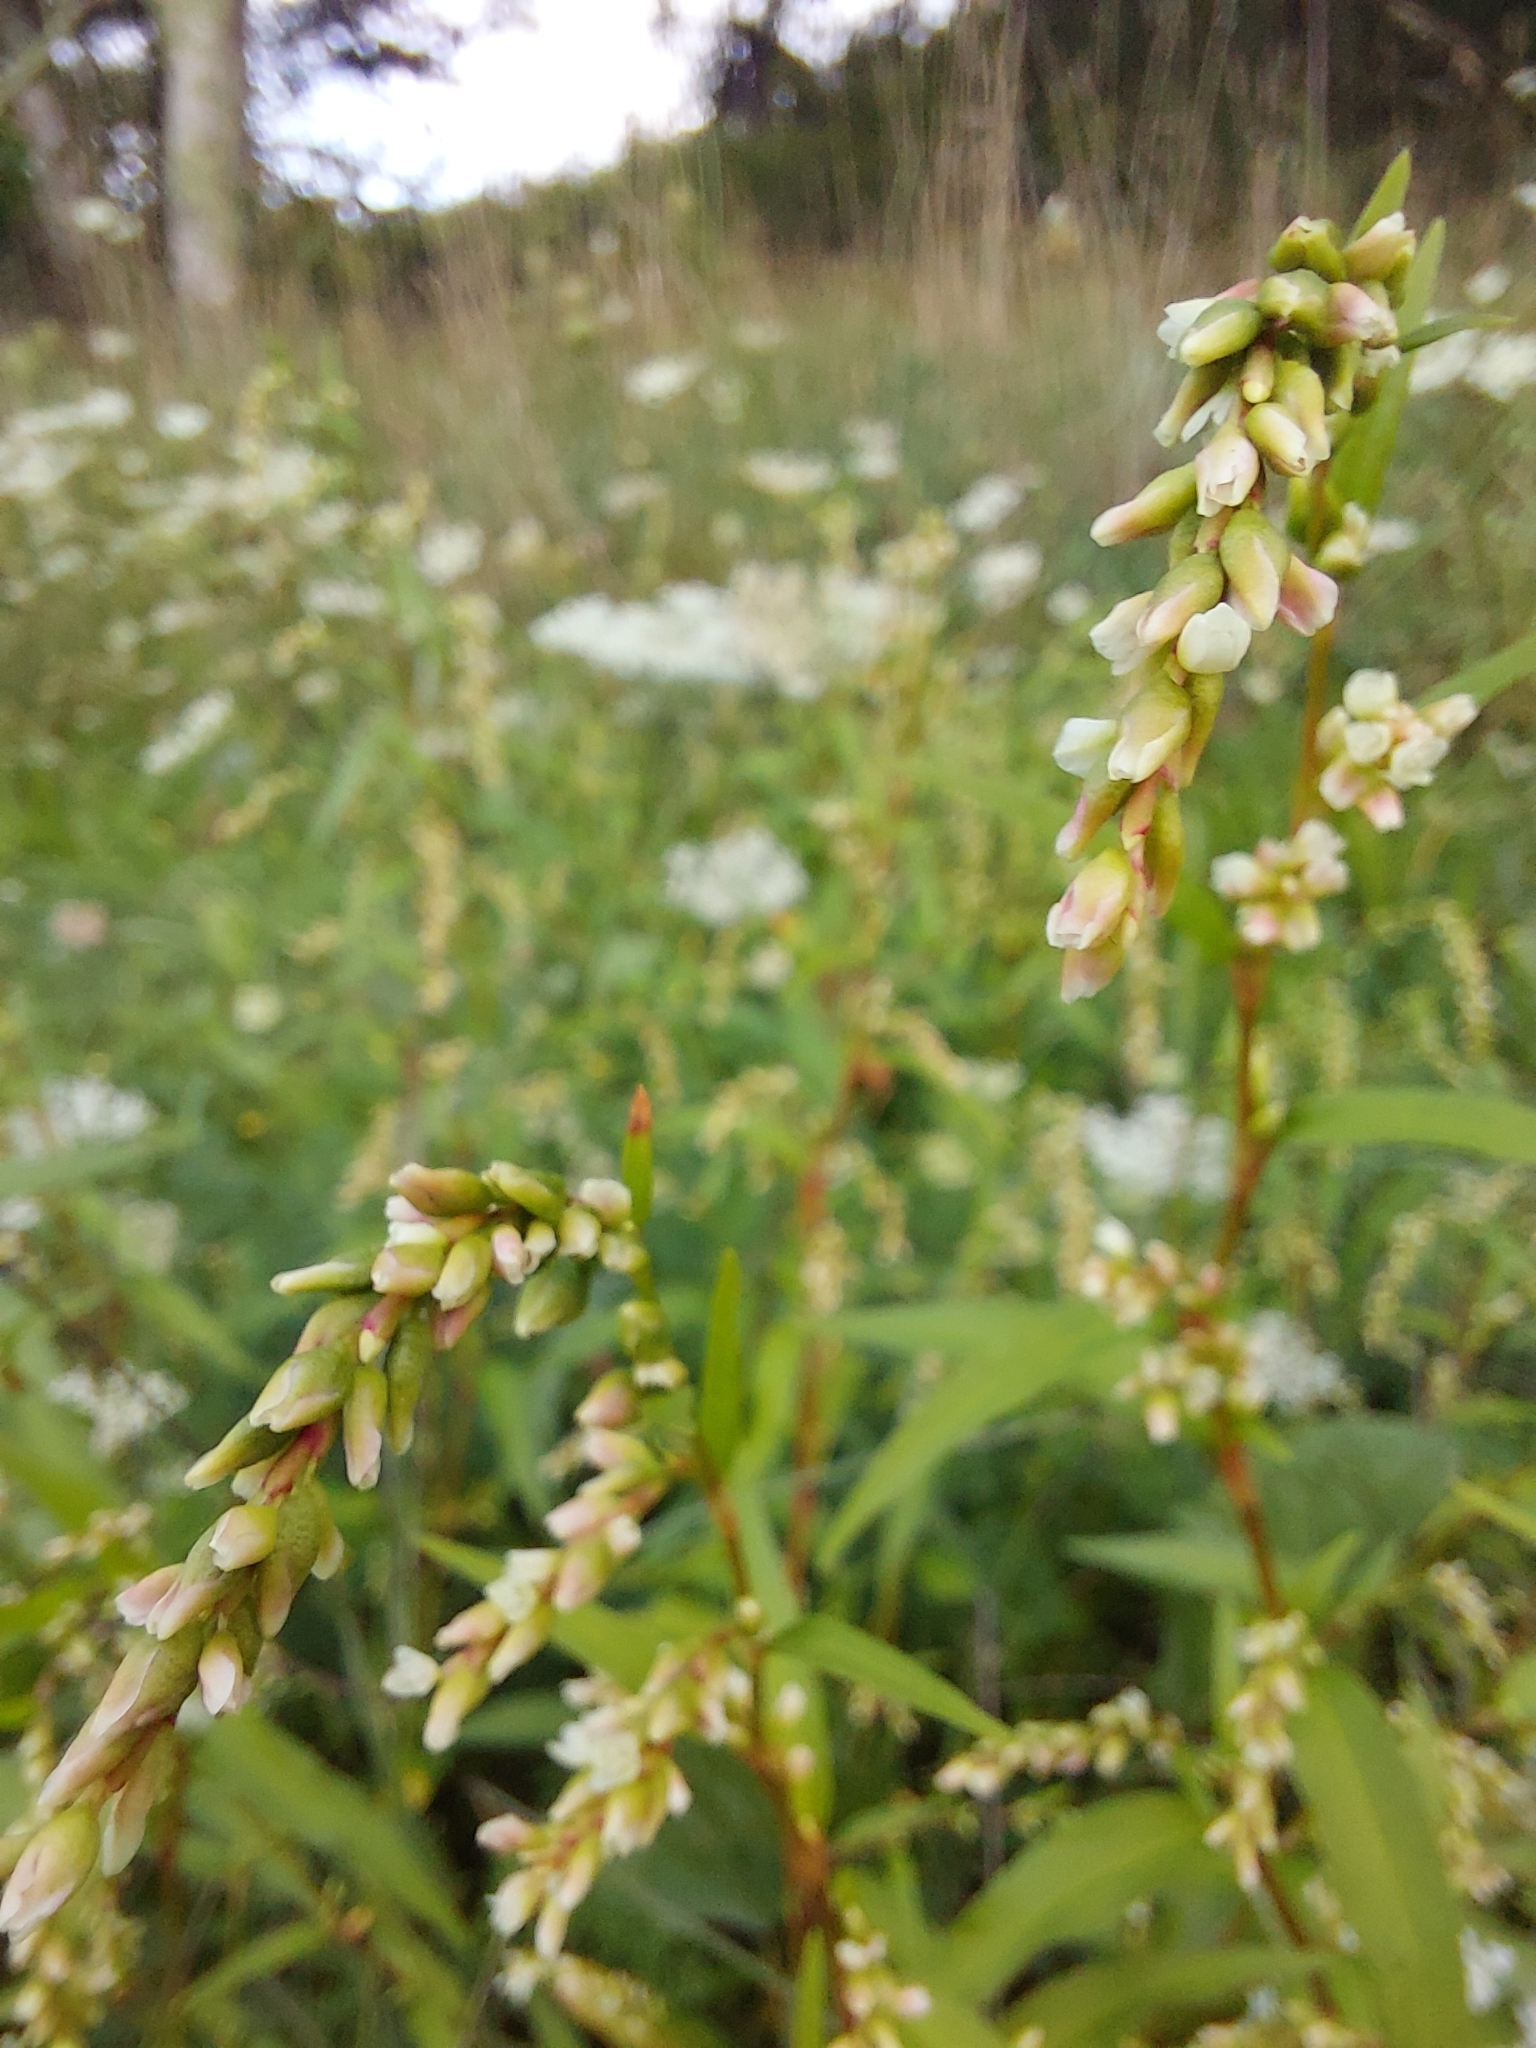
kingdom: Plantae
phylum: Tracheophyta
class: Magnoliopsida
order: Caryophyllales
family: Polygonaceae
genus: Persicaria
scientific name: Persicaria hydropiper
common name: Water-pepper
